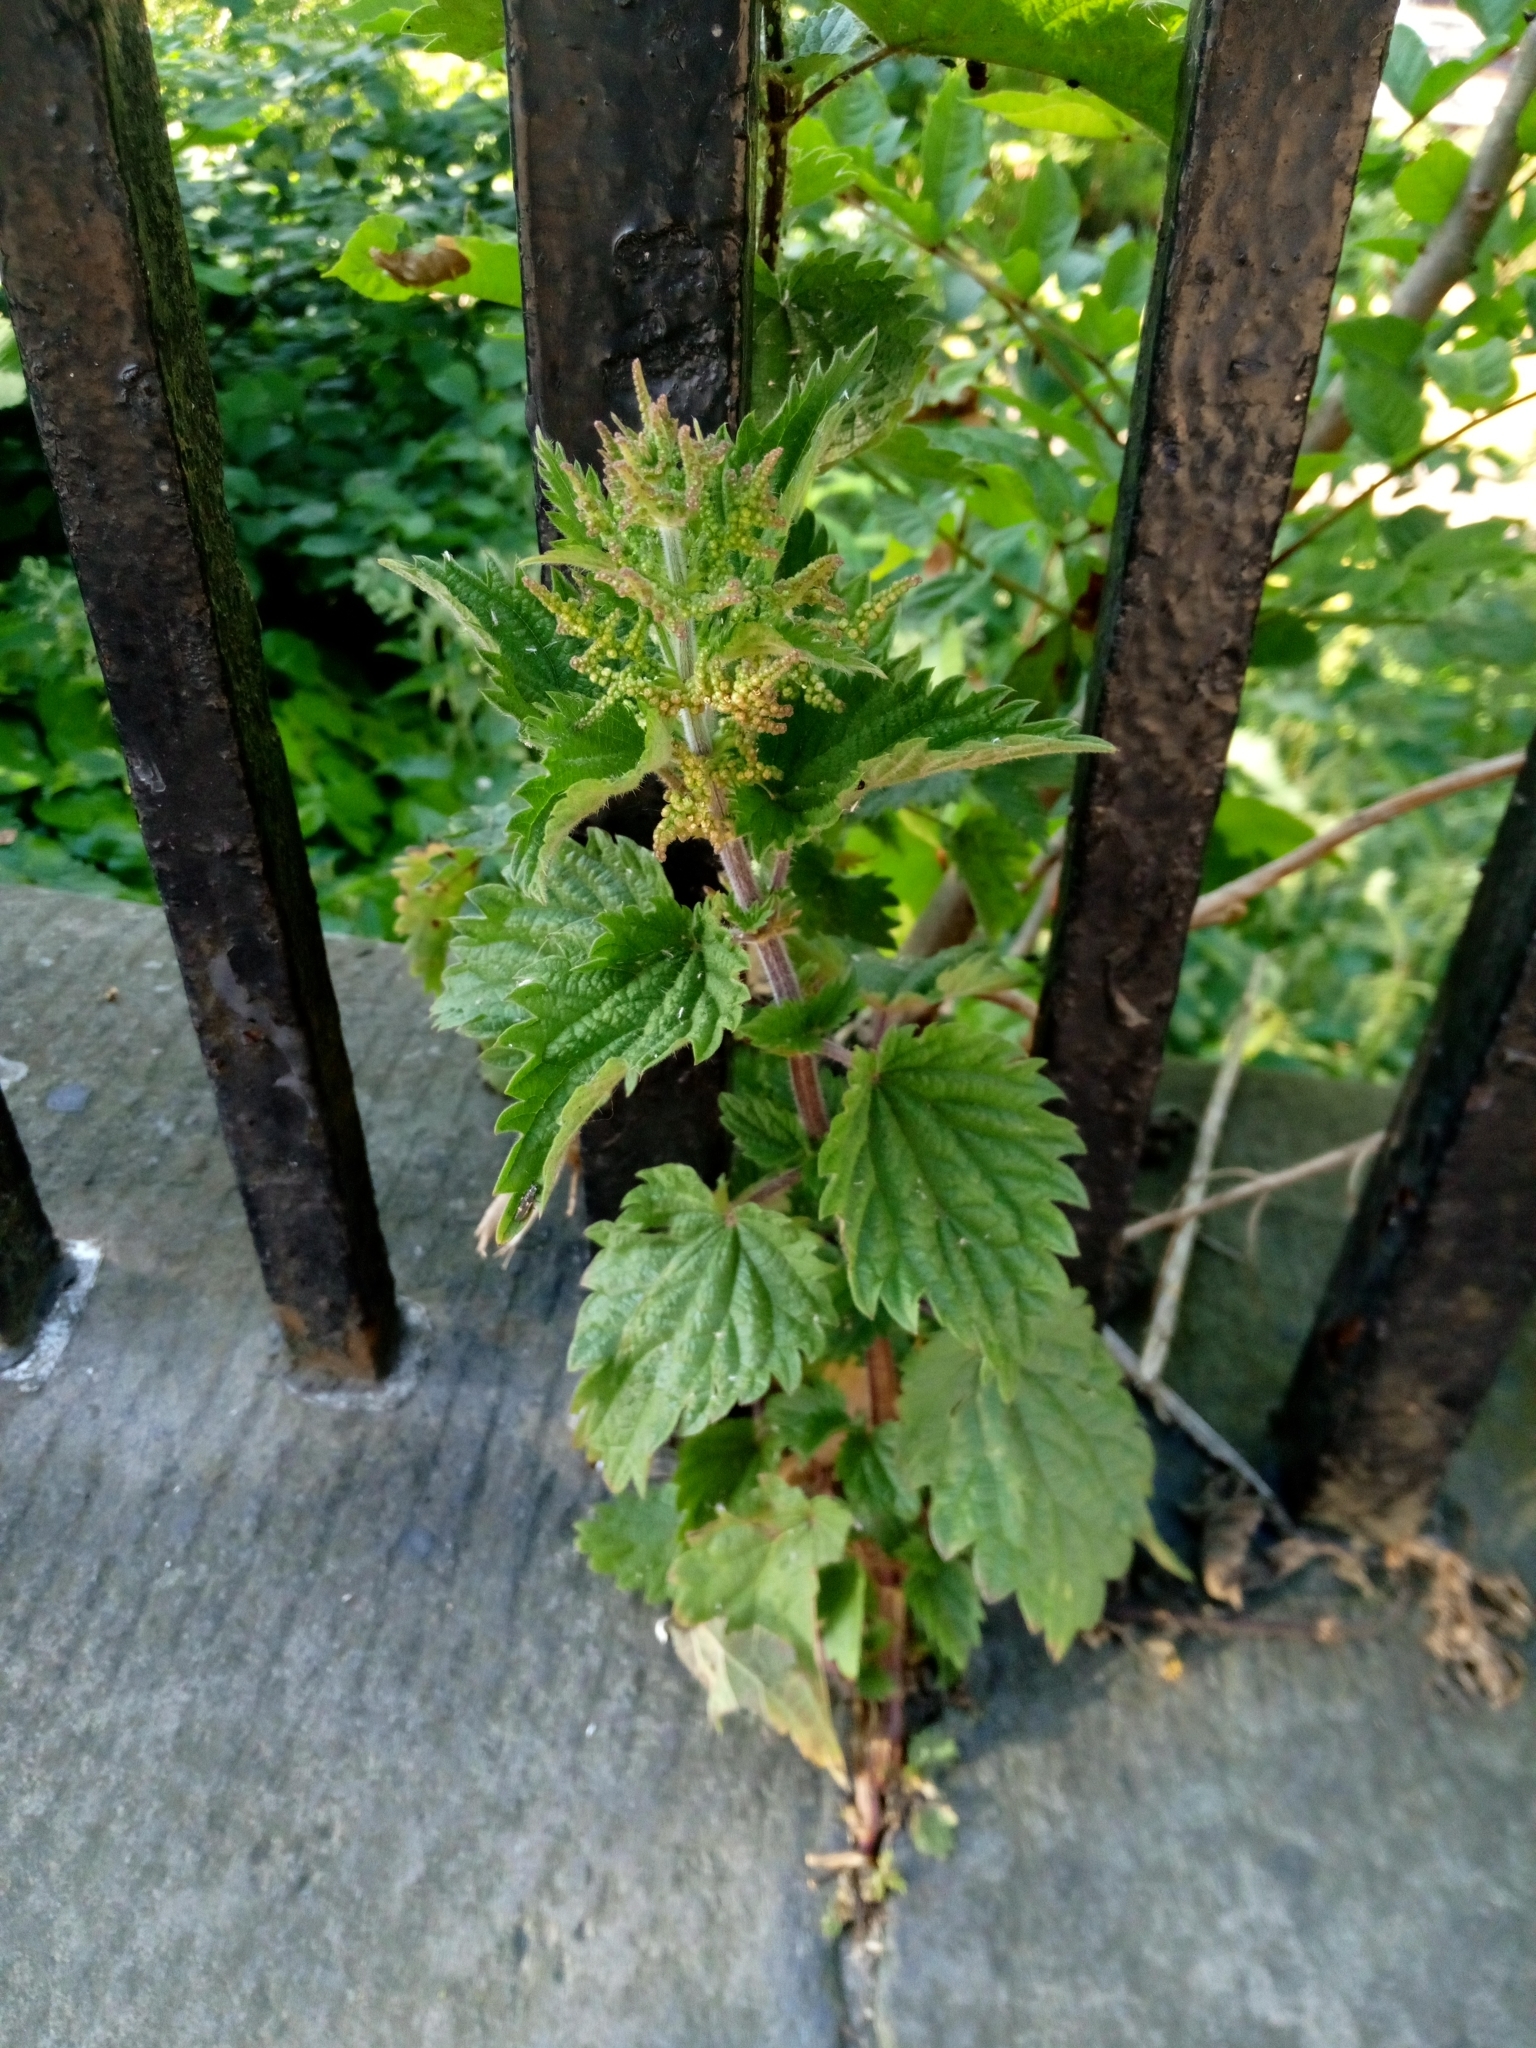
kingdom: Plantae
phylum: Tracheophyta
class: Magnoliopsida
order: Rosales
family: Urticaceae
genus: Urtica
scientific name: Urtica dioica
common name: Common nettle
